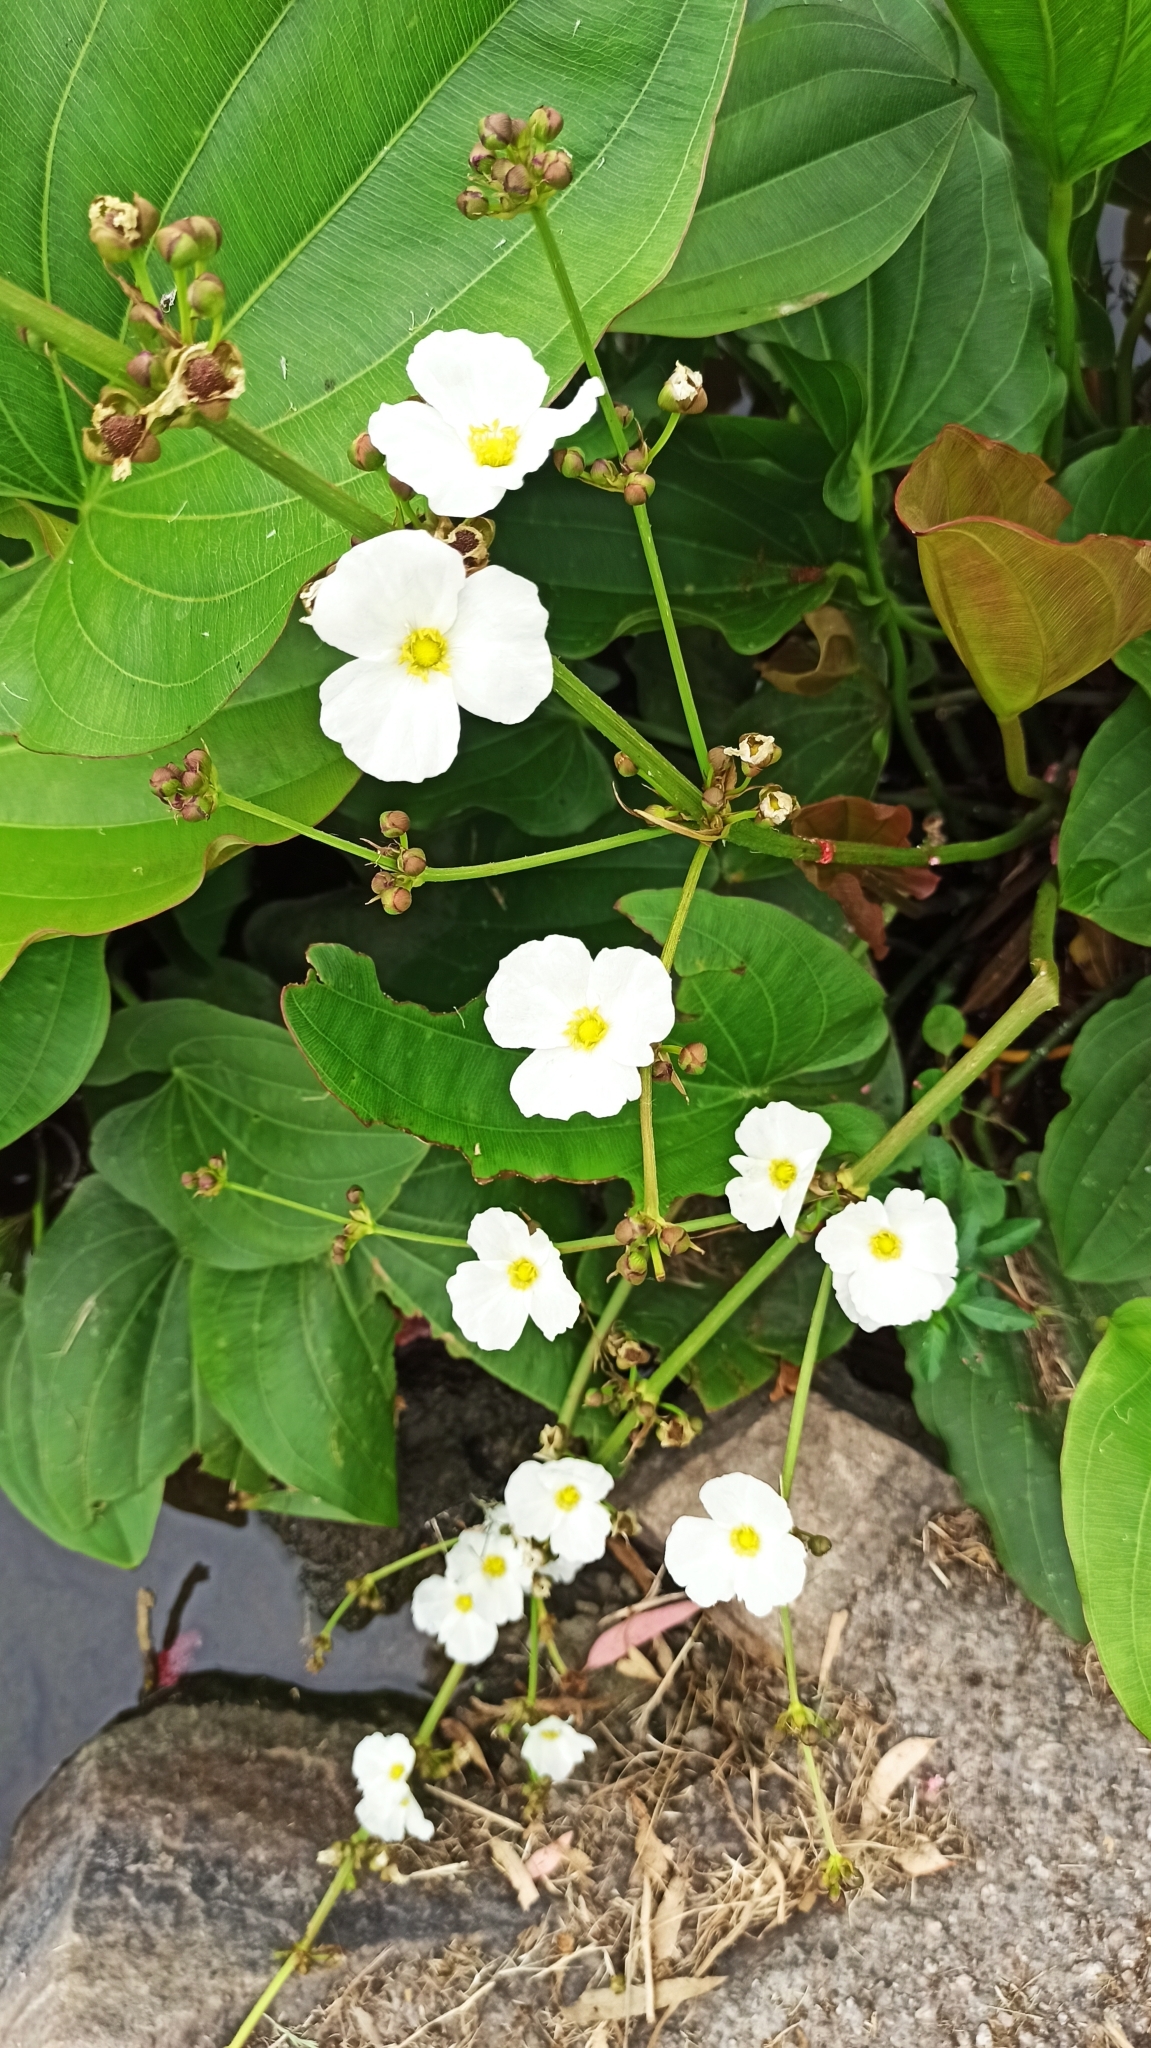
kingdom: Plantae
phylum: Tracheophyta
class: Liliopsida
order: Alismatales
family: Alismataceae
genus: Aquarius
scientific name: Aquarius grandiflorus
